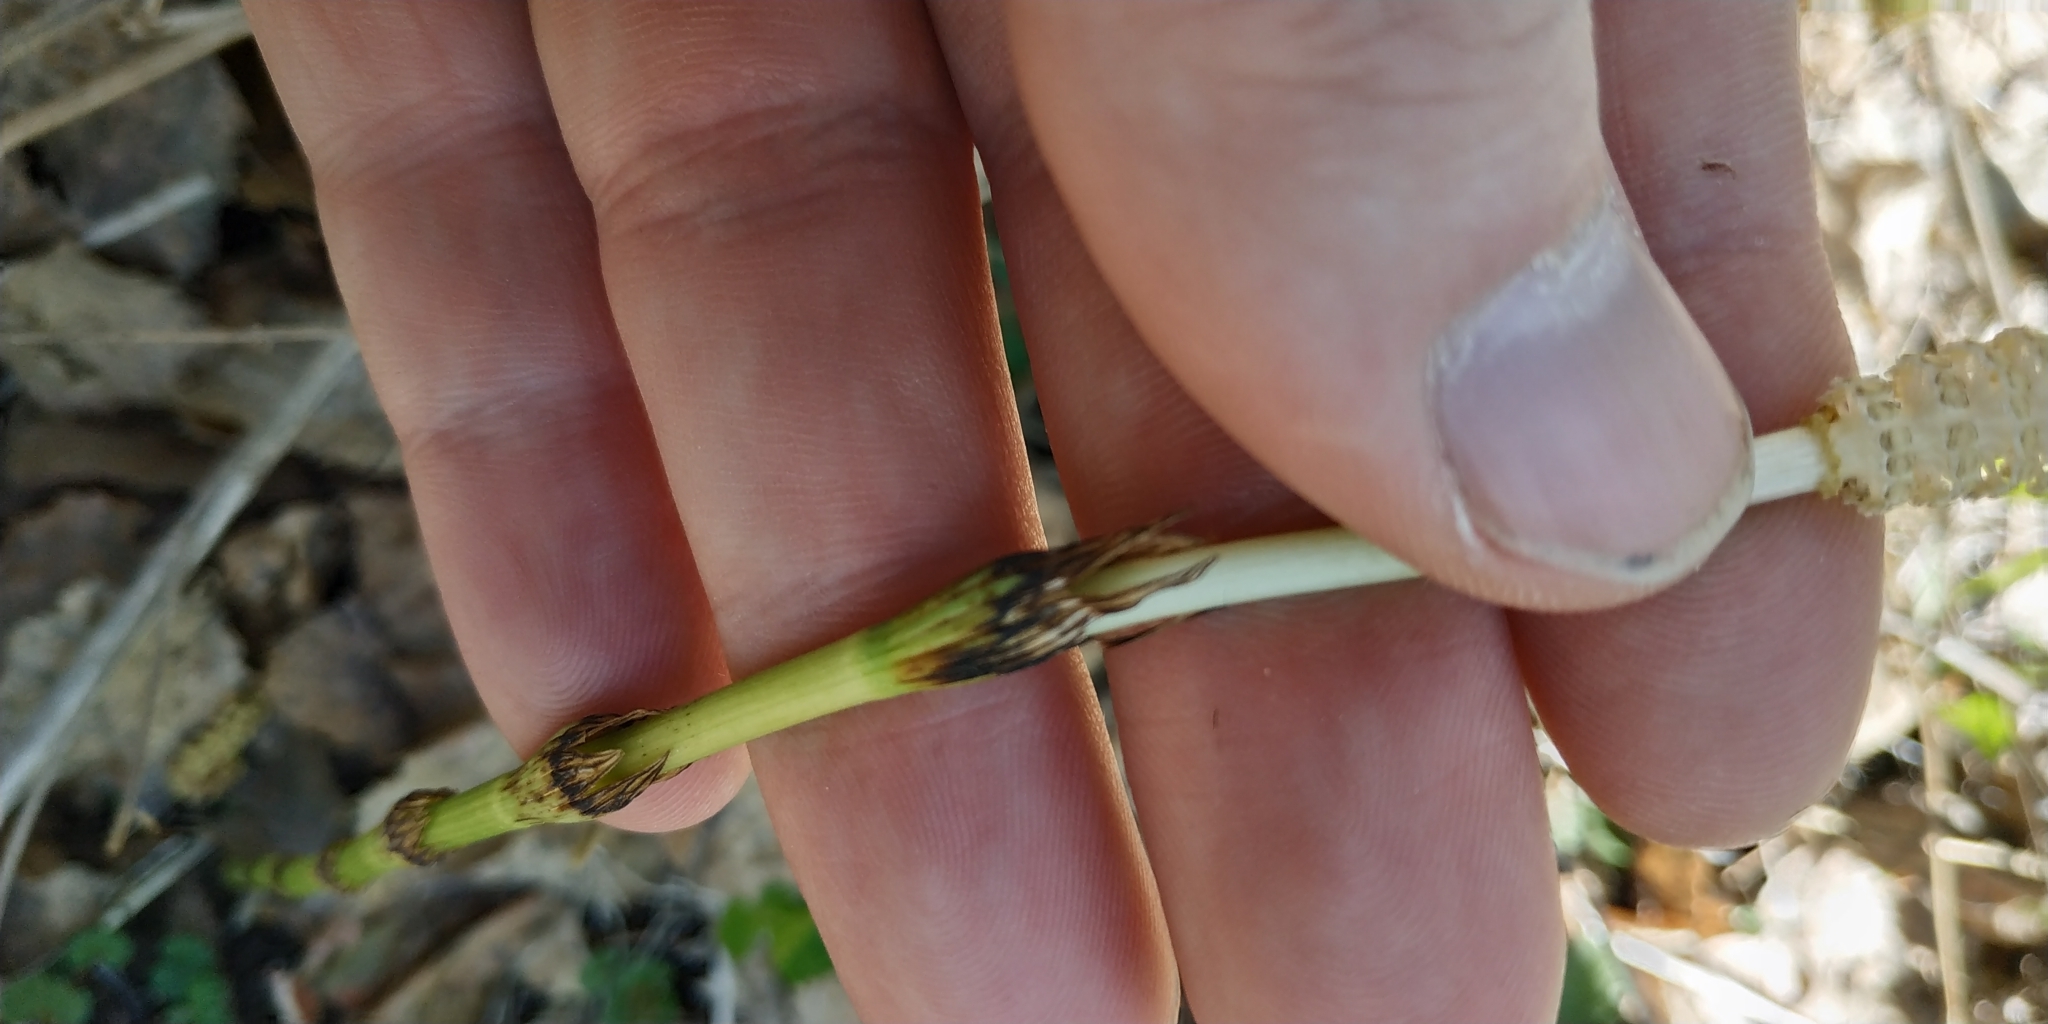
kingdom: Plantae
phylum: Tracheophyta
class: Polypodiopsida
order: Equisetales
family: Equisetaceae
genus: Equisetum
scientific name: Equisetum pratense
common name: Meadow horsetail
